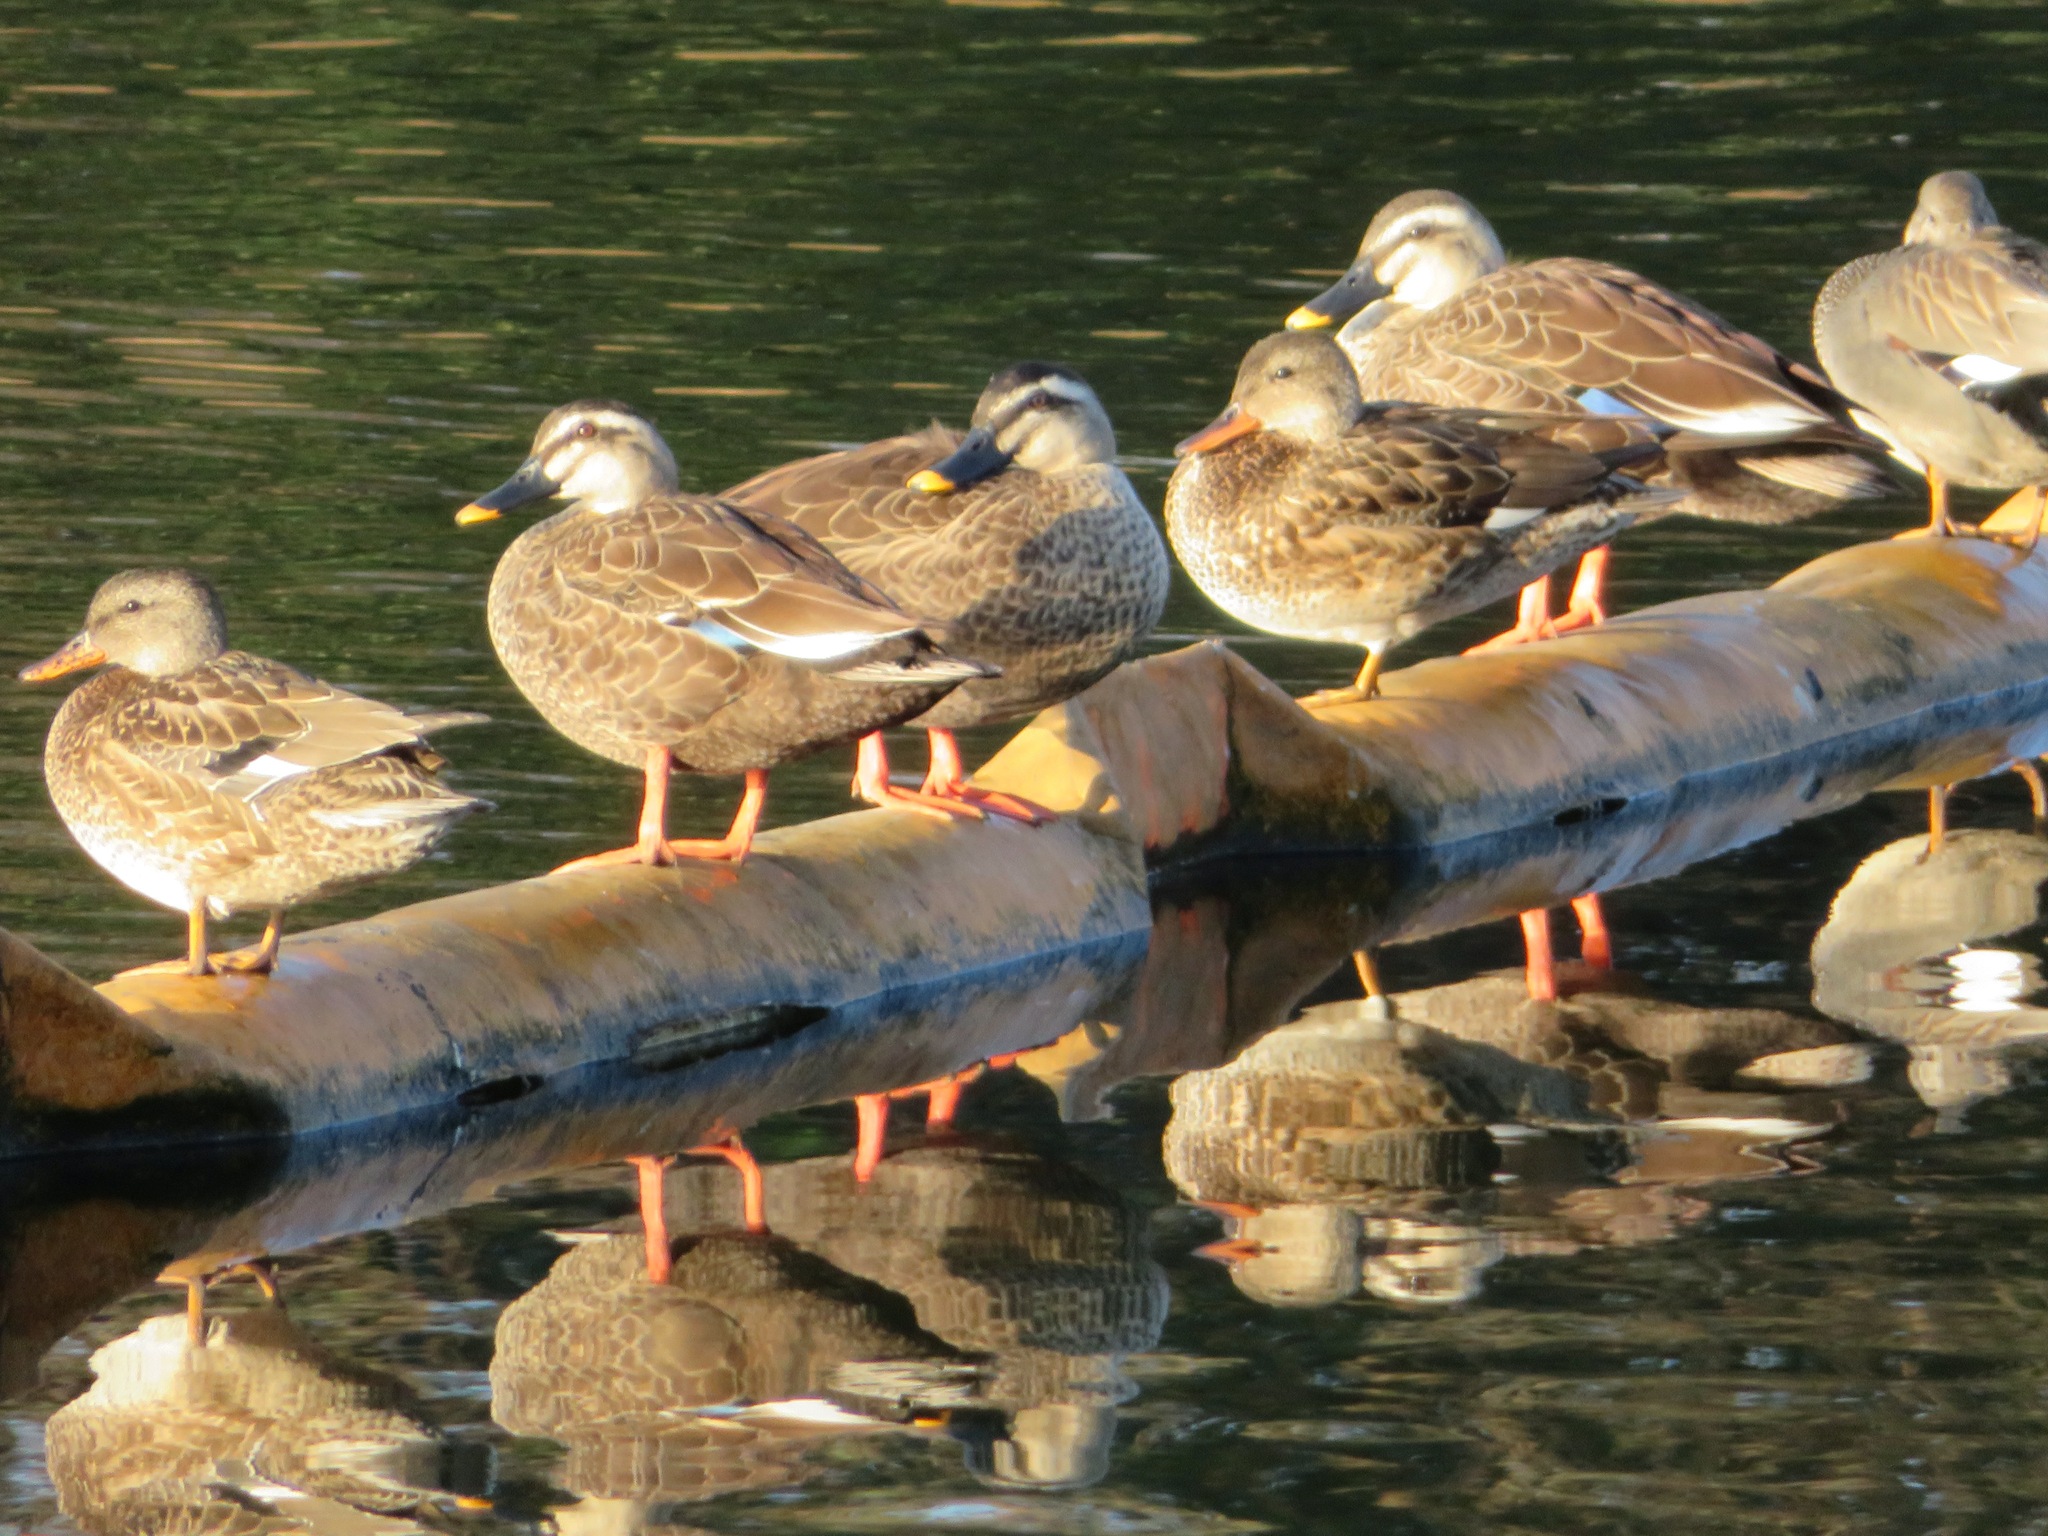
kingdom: Animalia
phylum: Chordata
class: Aves
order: Anseriformes
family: Anatidae
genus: Anas
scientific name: Anas zonorhyncha
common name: Eastern spot-billed duck
